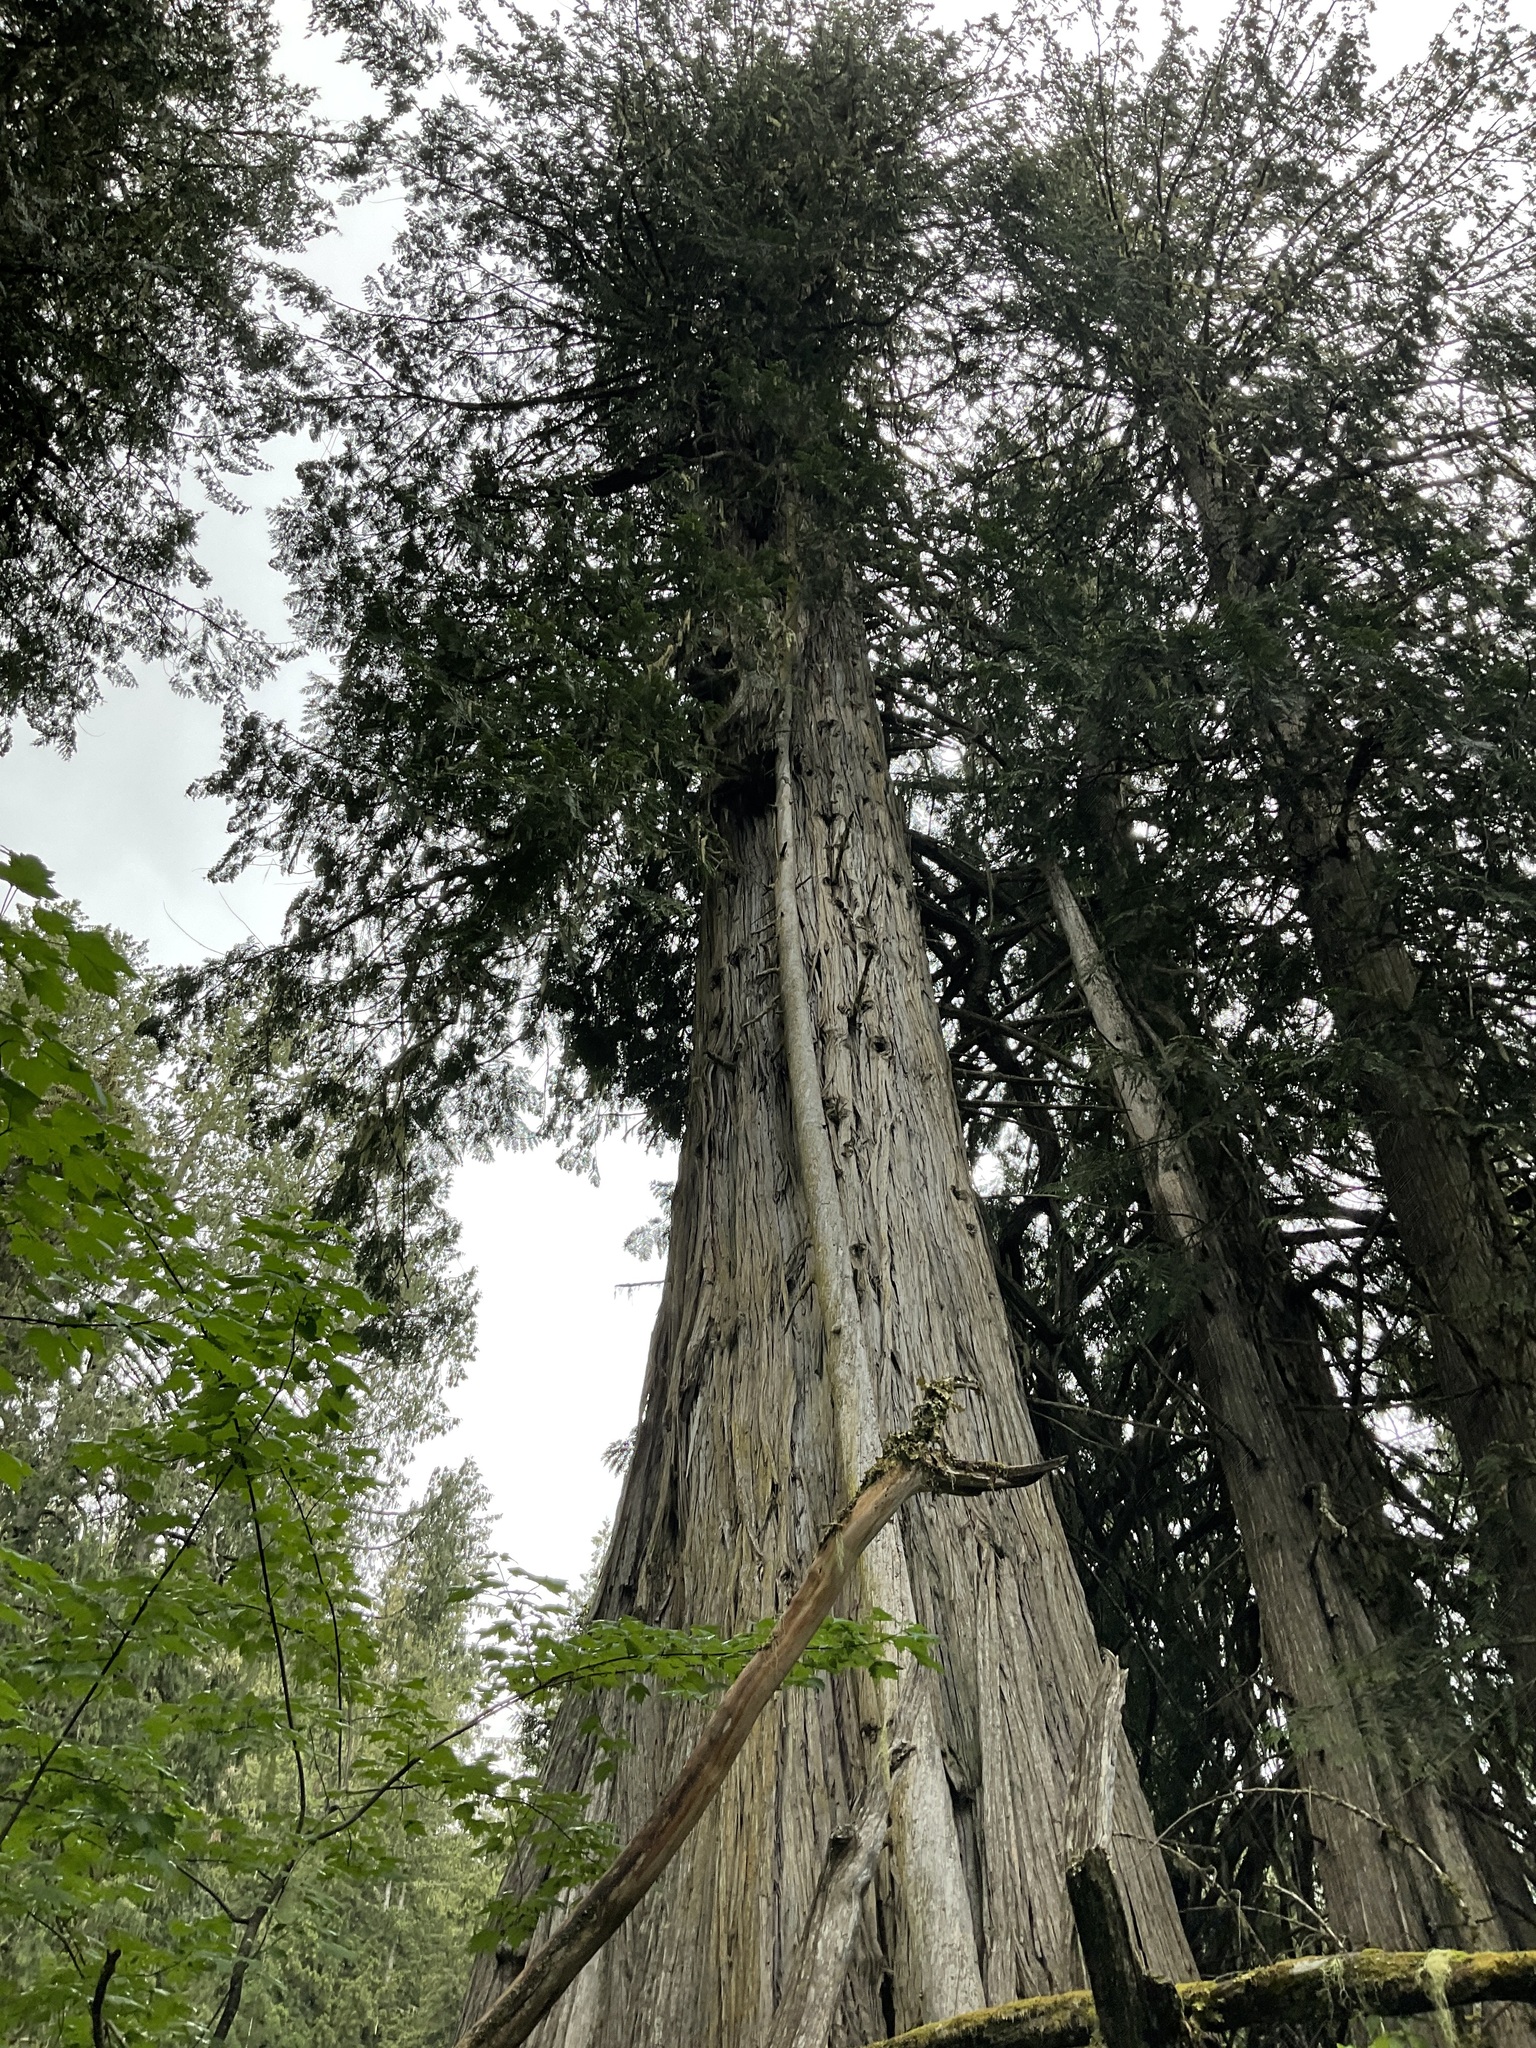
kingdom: Plantae
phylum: Tracheophyta
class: Pinopsida
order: Pinales
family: Cupressaceae
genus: Thuja
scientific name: Thuja plicata
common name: Western red-cedar
